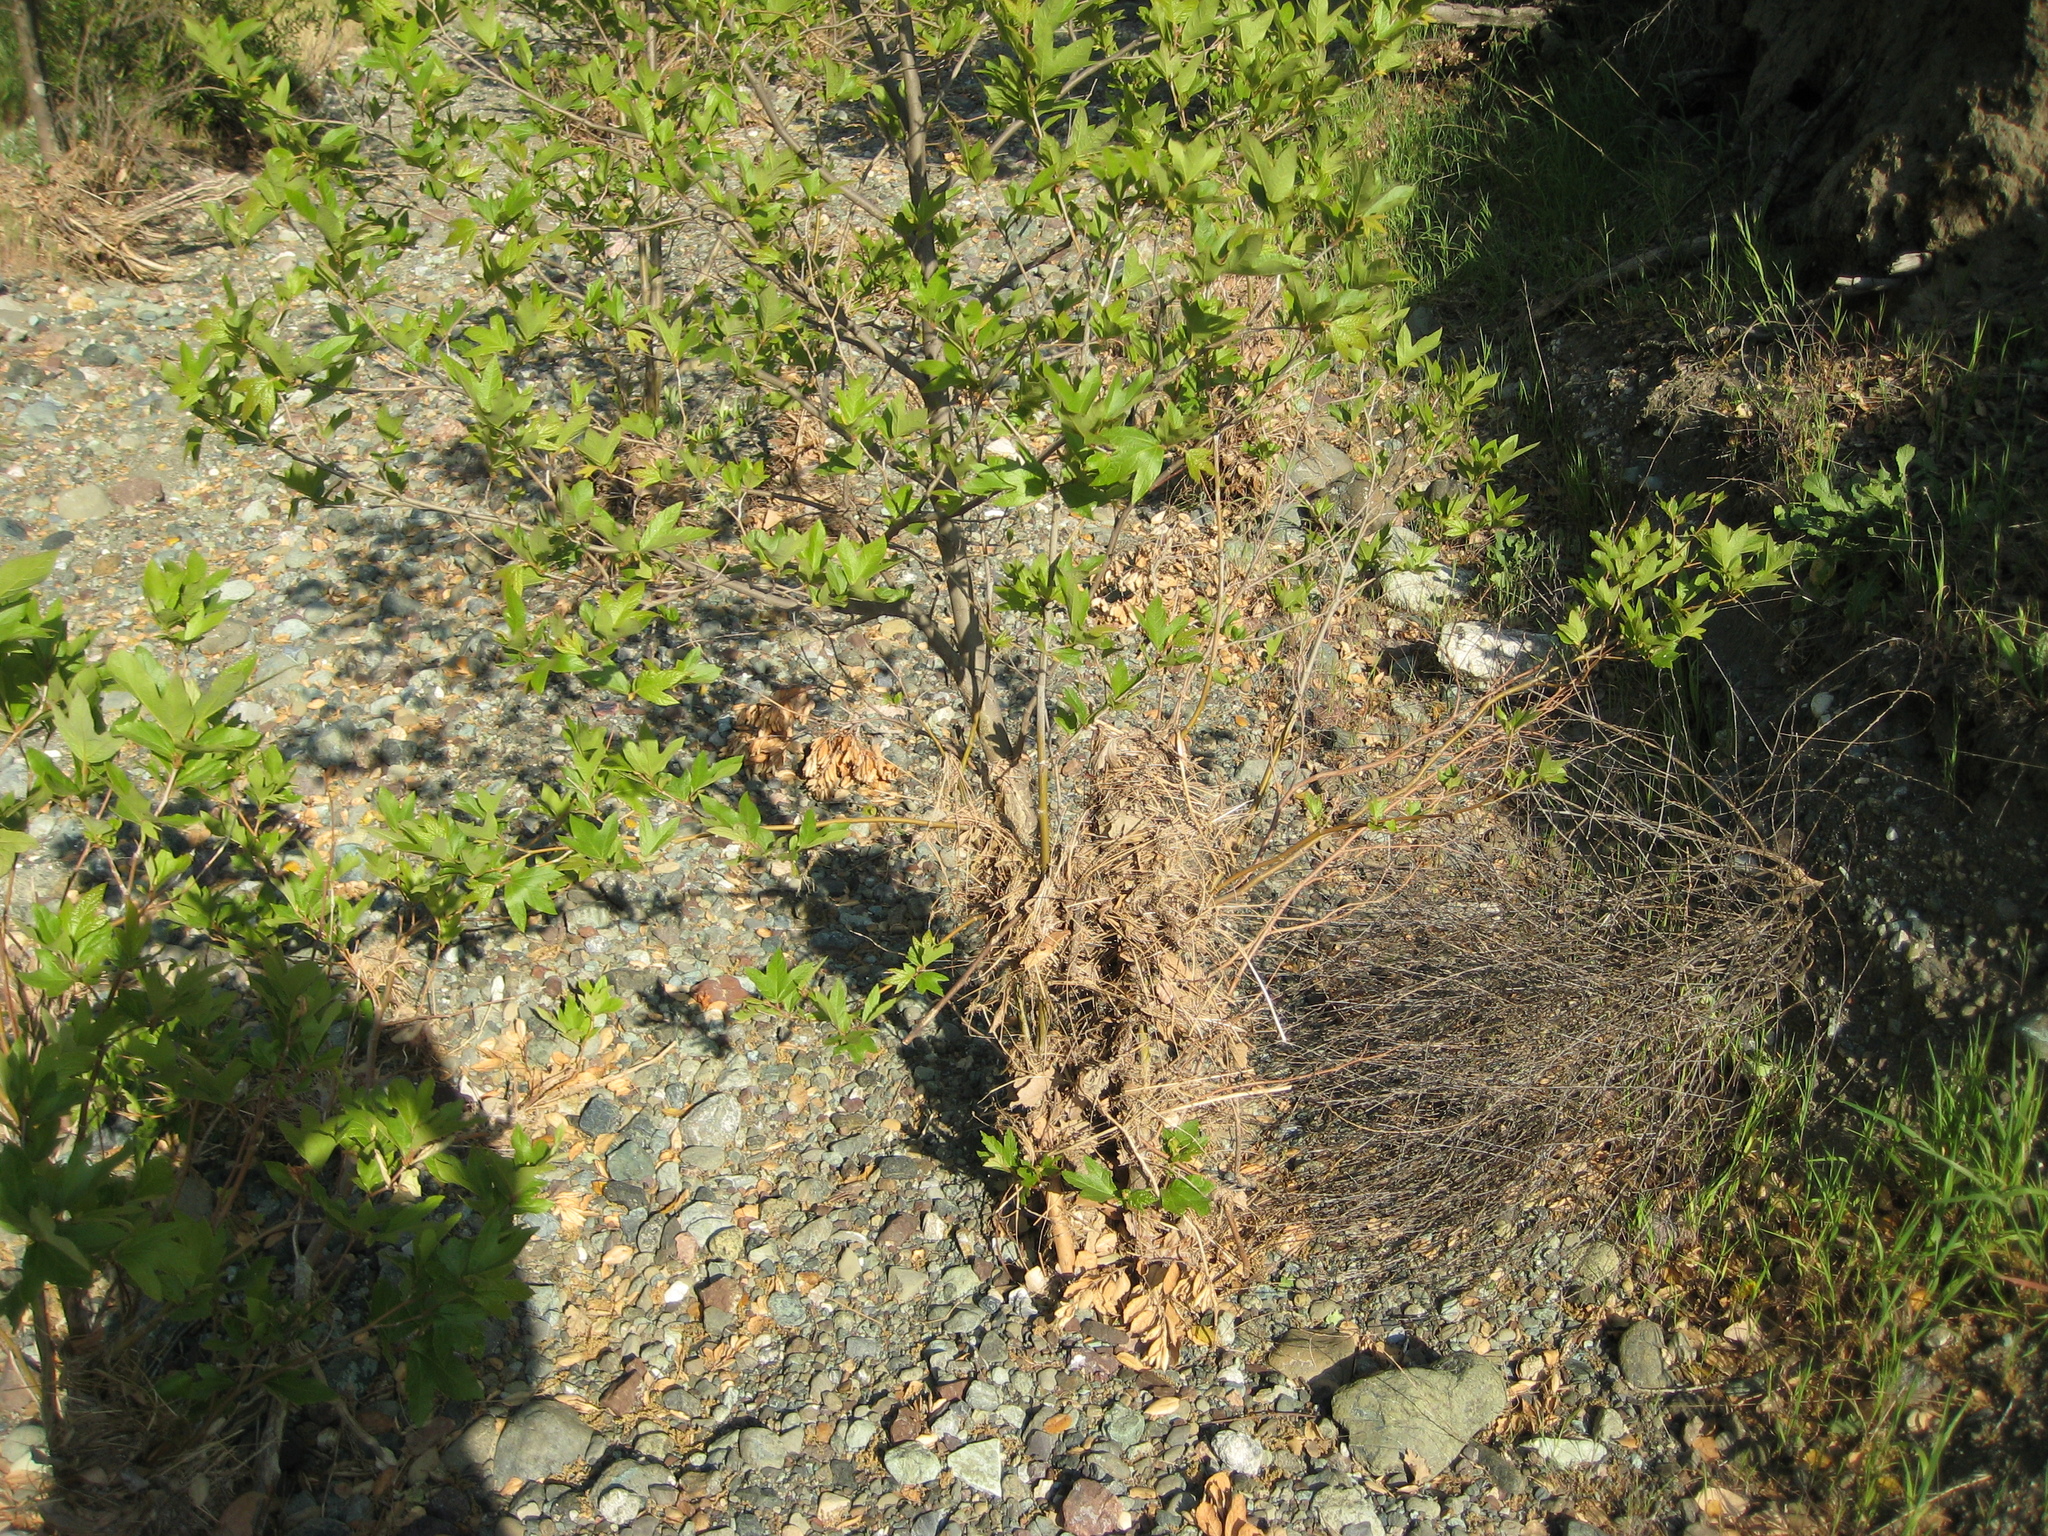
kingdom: Plantae
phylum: Tracheophyta
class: Magnoliopsida
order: Proteales
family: Platanaceae
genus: Platanus
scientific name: Platanus racemosa
